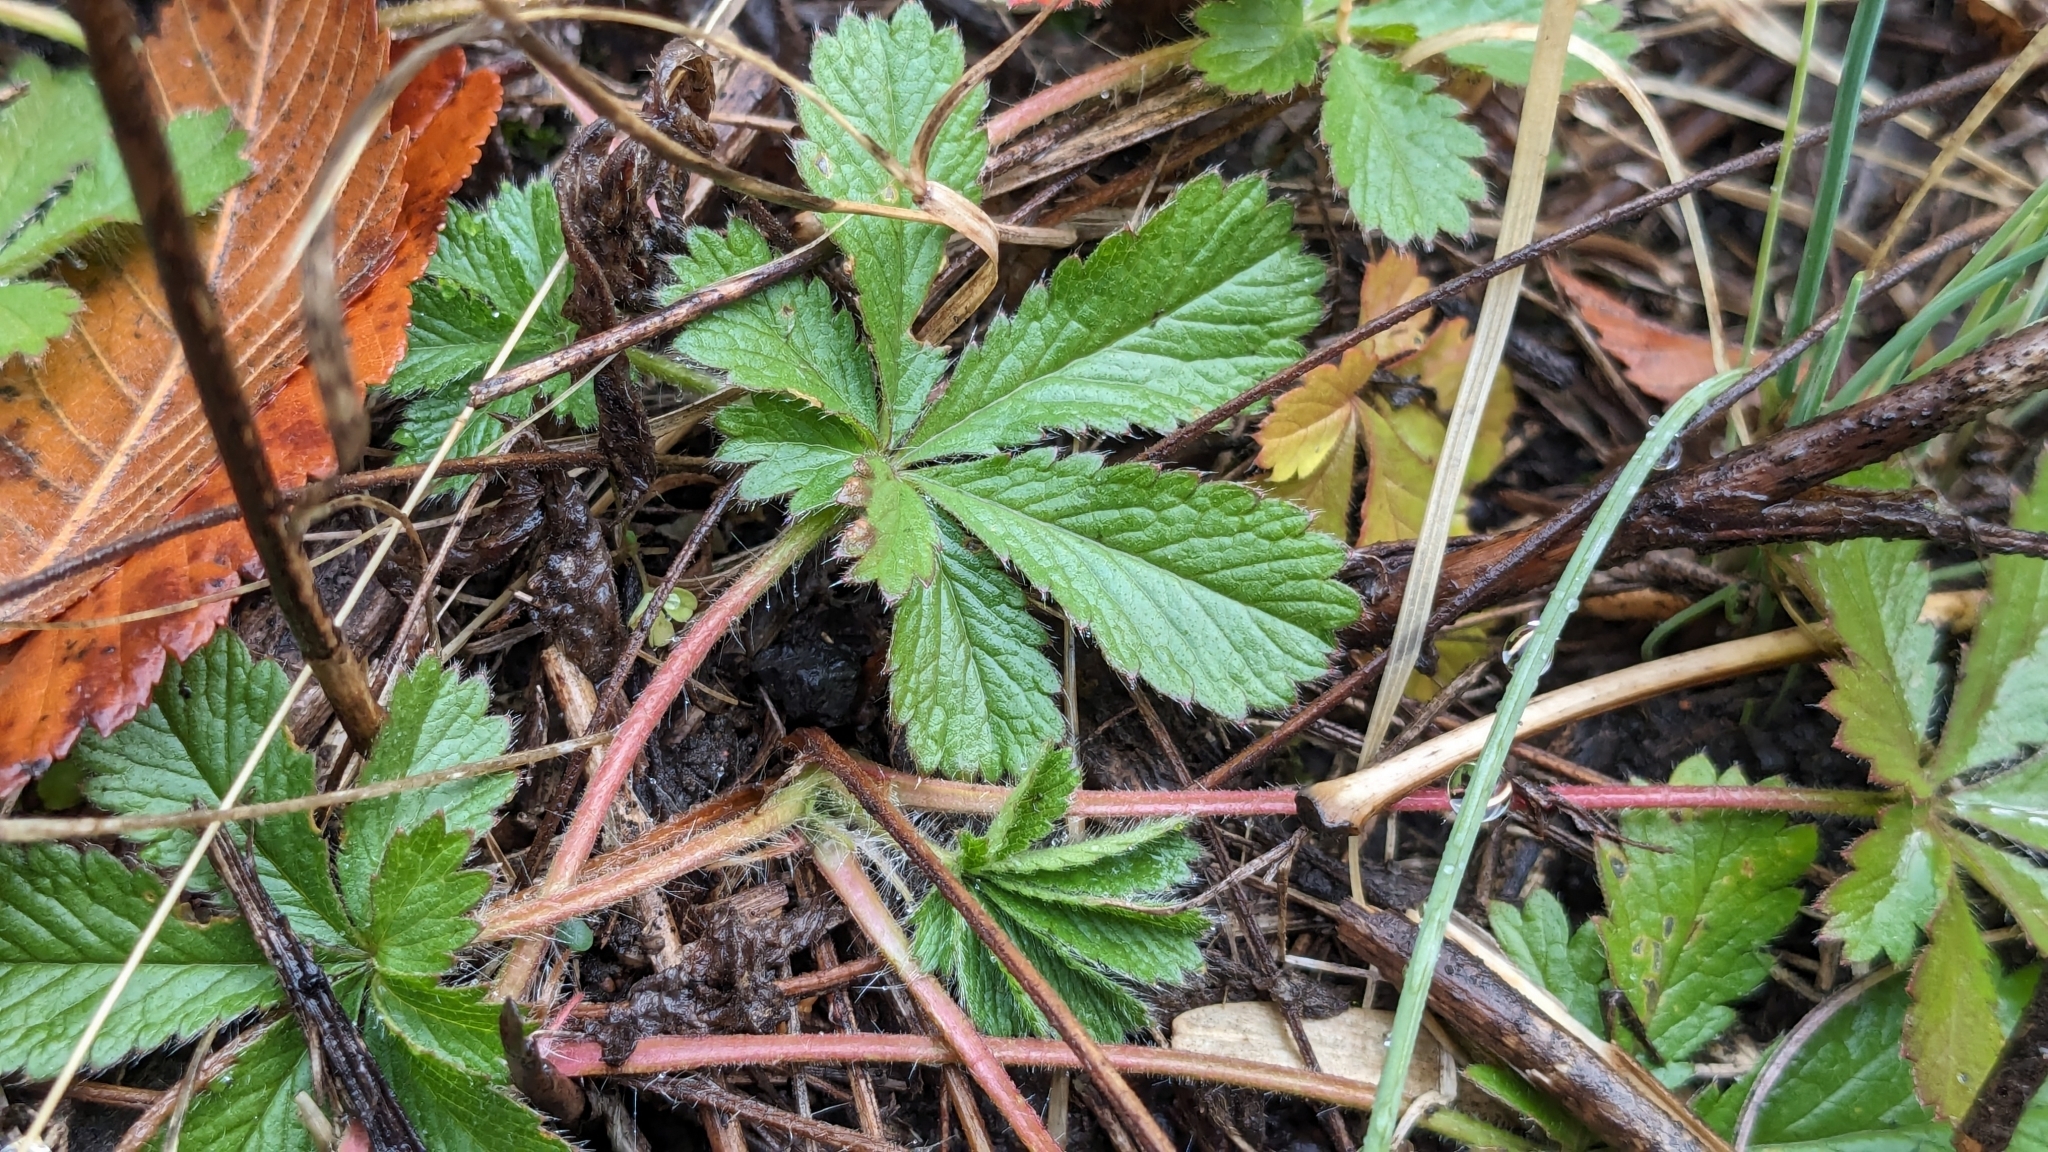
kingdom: Plantae
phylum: Tracheophyta
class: Magnoliopsida
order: Rosales
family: Rosaceae
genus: Potentilla
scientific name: Potentilla recta
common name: Sulphur cinquefoil
